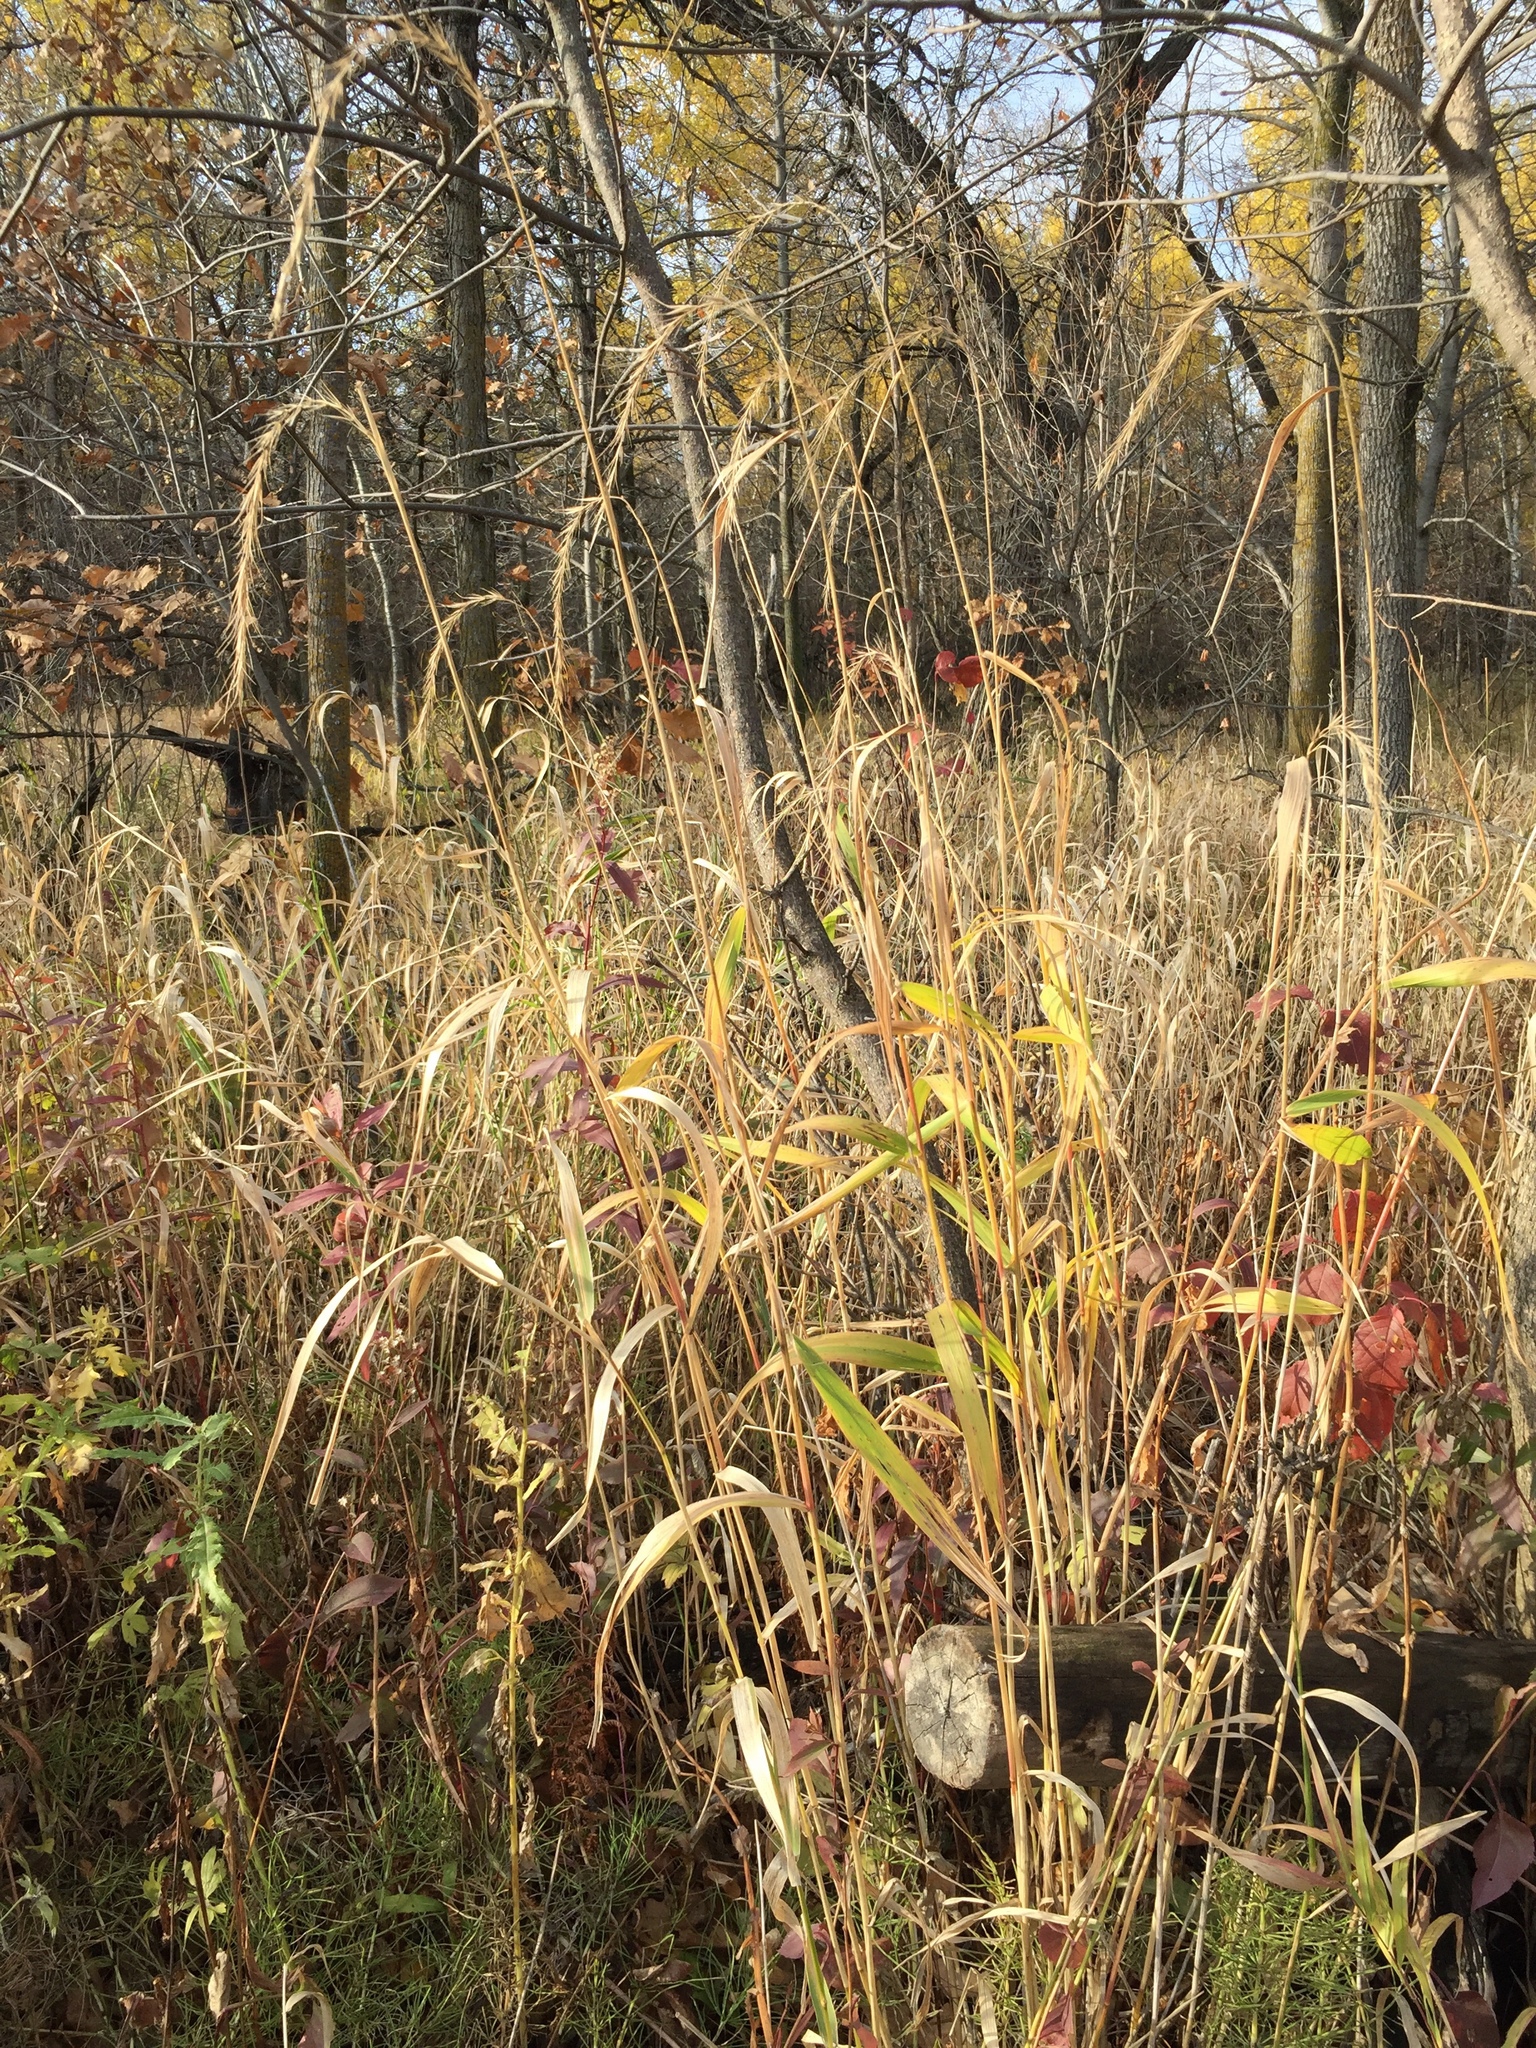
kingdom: Plantae
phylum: Tracheophyta
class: Liliopsida
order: Poales
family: Poaceae
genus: Elymus
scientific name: Elymus canadensis
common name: Canada wild rye
